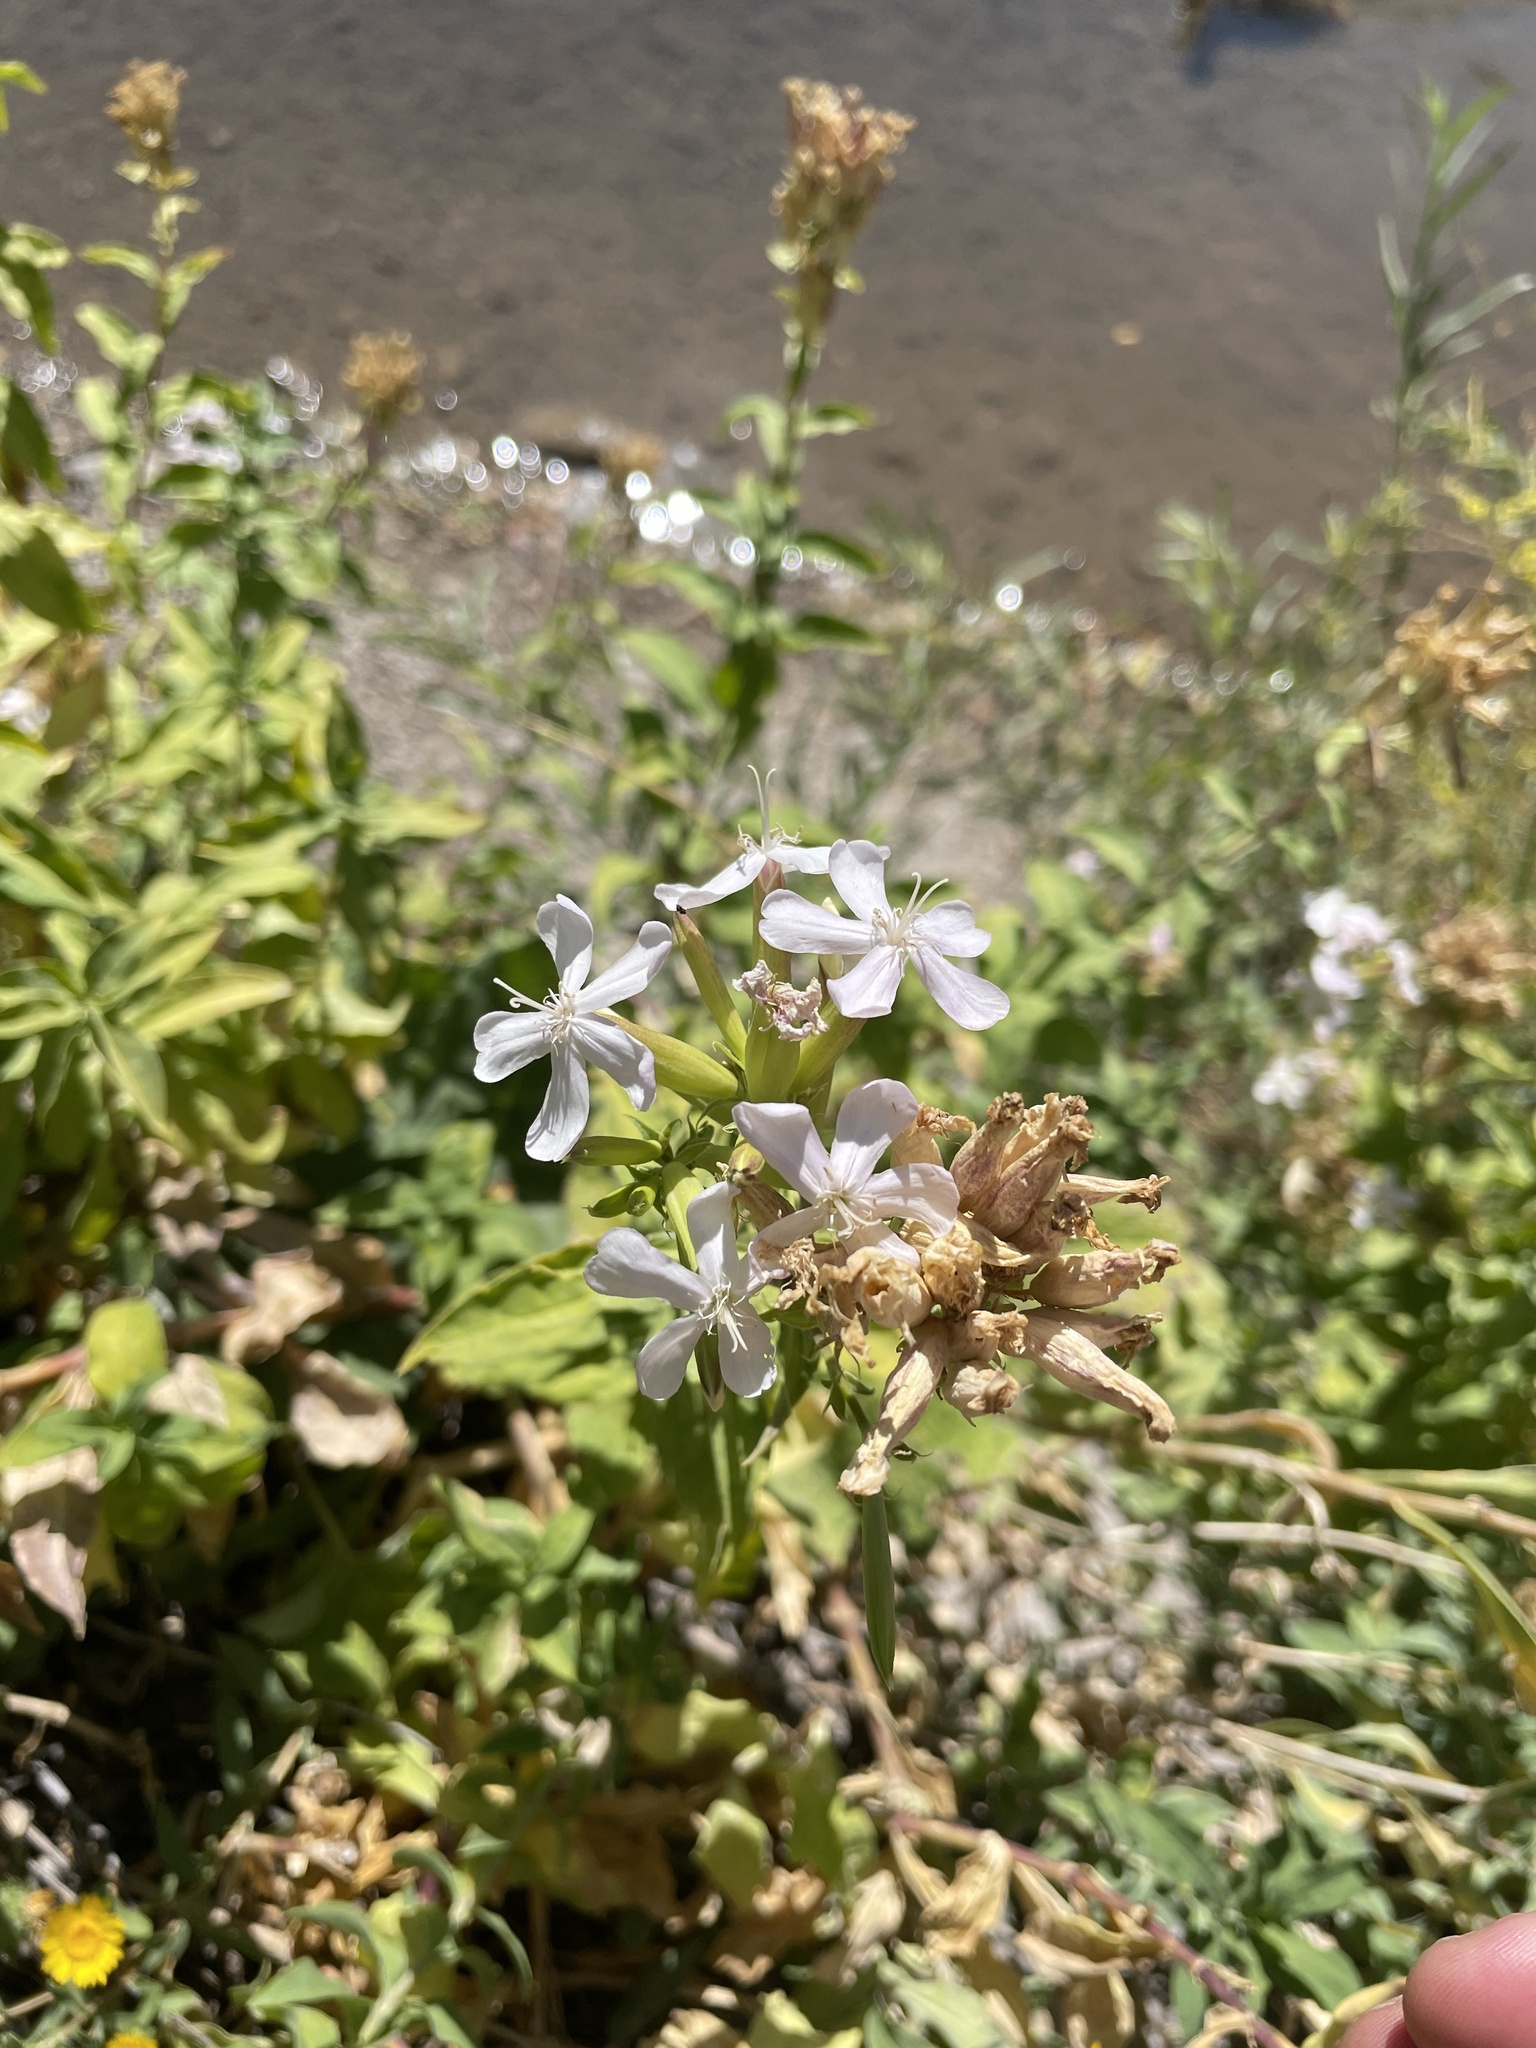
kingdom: Plantae
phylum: Tracheophyta
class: Magnoliopsida
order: Caryophyllales
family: Caryophyllaceae
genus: Saponaria
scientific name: Saponaria officinalis
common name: Soapwort
